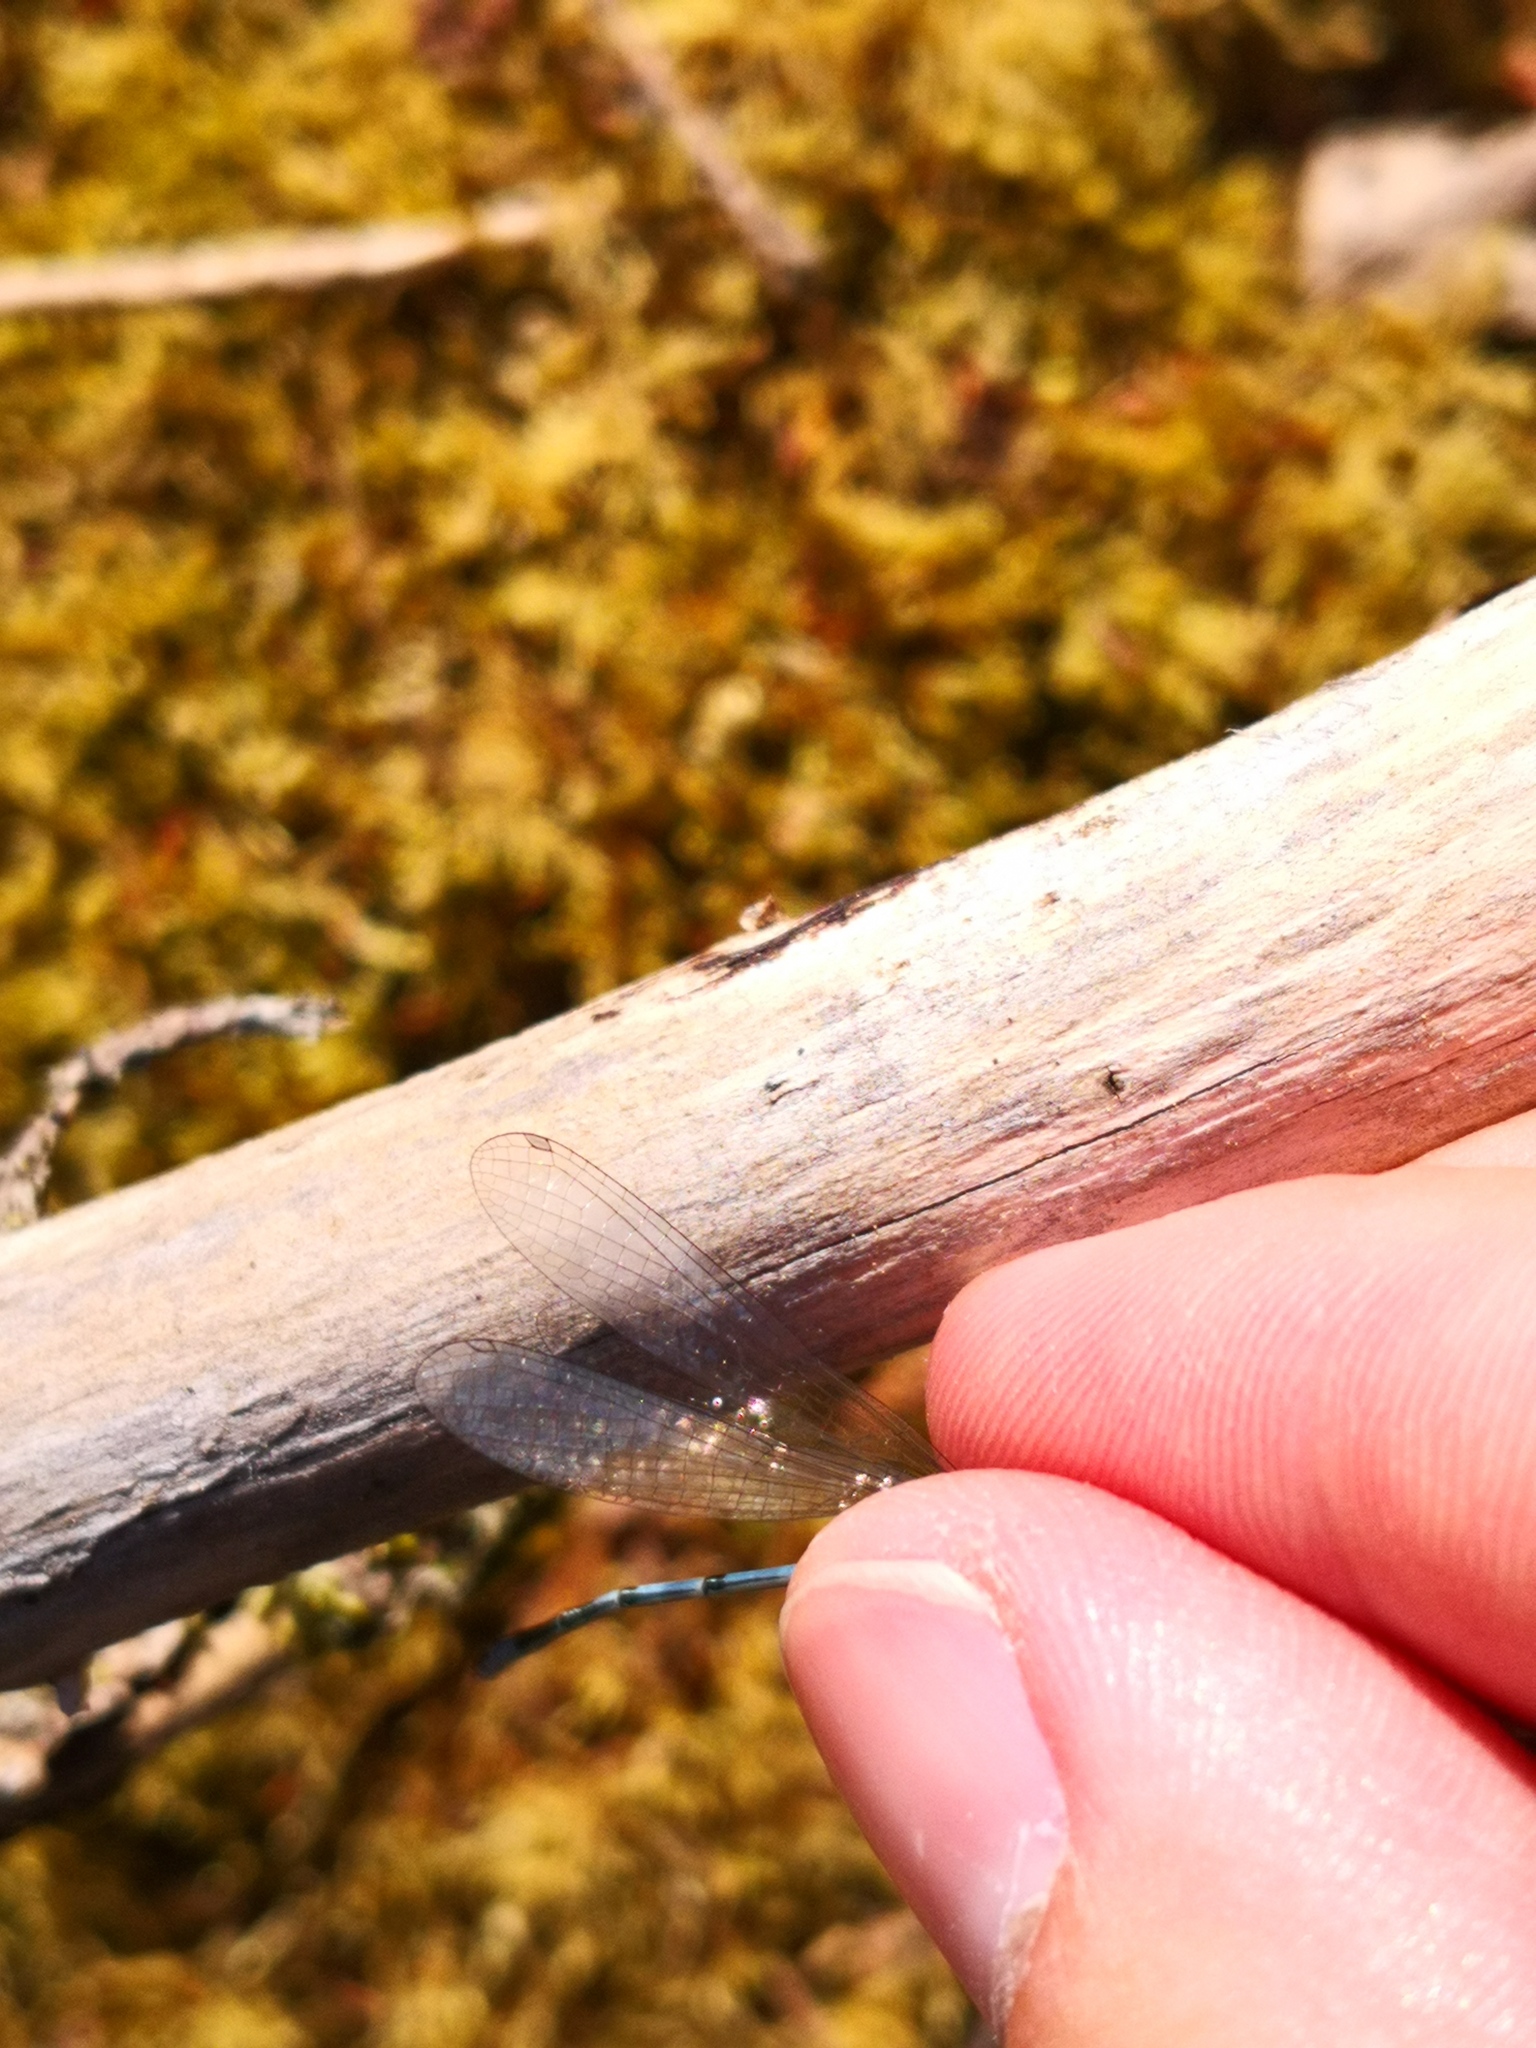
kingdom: Animalia
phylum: Arthropoda
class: Insecta
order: Odonata
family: Coenagrionidae
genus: Coenagrion
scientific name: Coenagrion puella
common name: Azure damselfly
